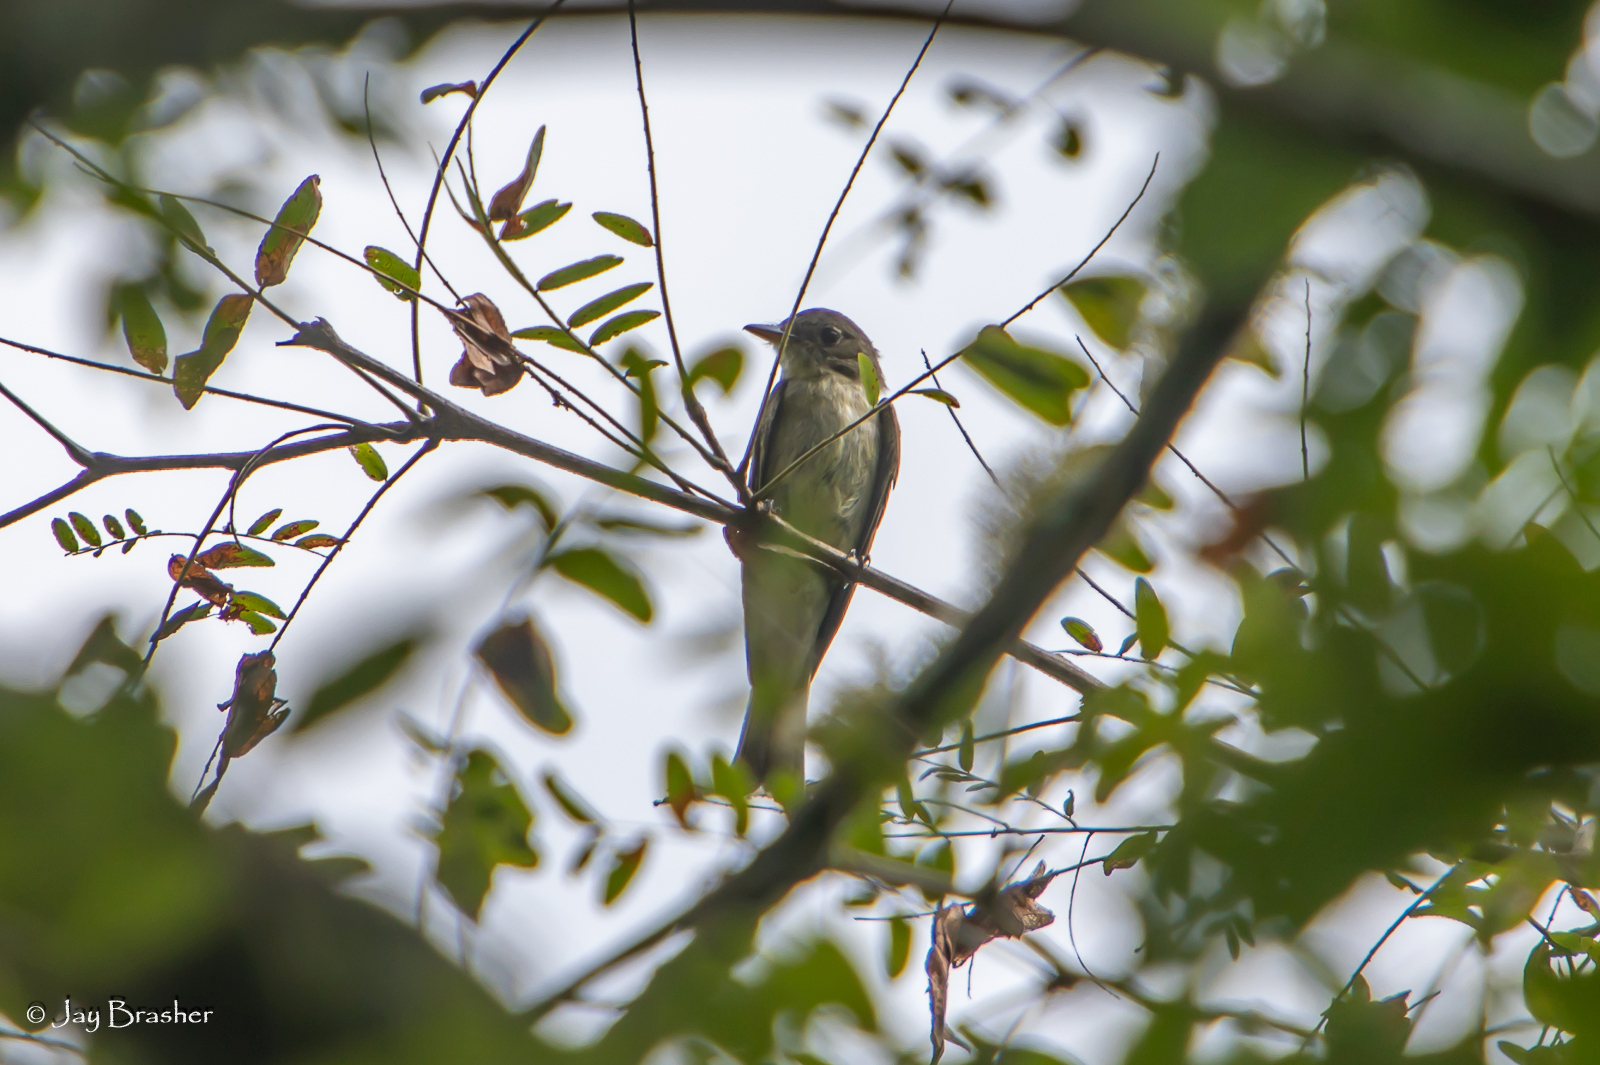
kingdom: Animalia
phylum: Chordata
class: Aves
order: Passeriformes
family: Tyrannidae
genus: Contopus
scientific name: Contopus virens
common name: Eastern wood-pewee
